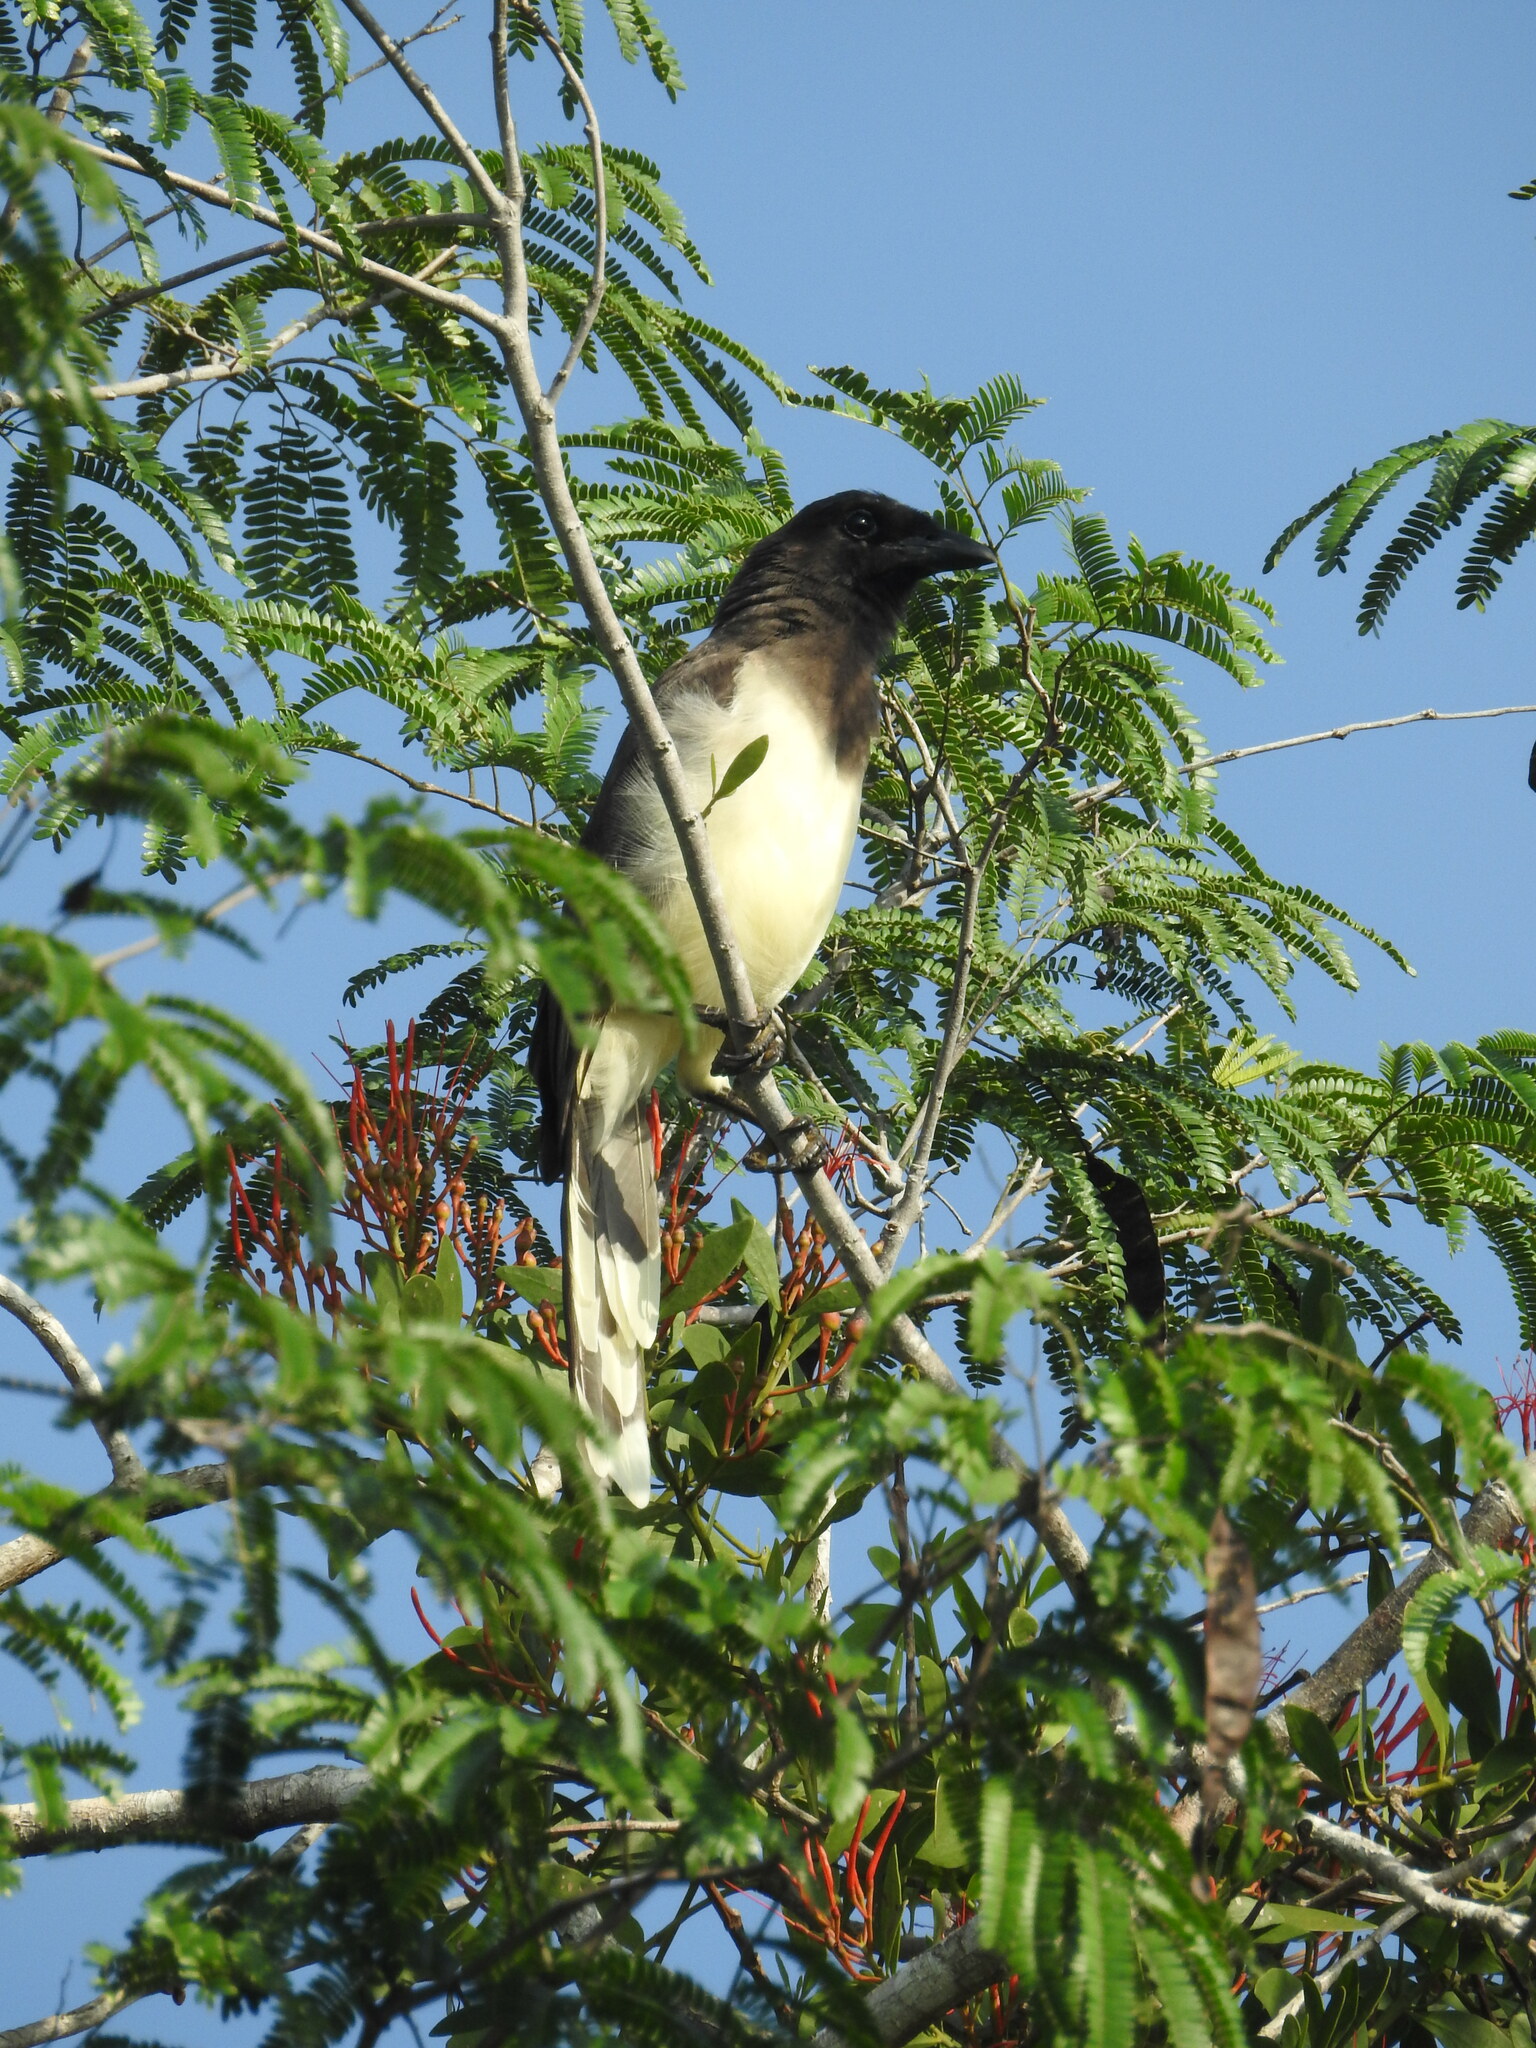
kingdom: Animalia
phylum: Chordata
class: Aves
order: Passeriformes
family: Corvidae
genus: Psilorhinus
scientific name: Psilorhinus morio
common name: Brown jay
